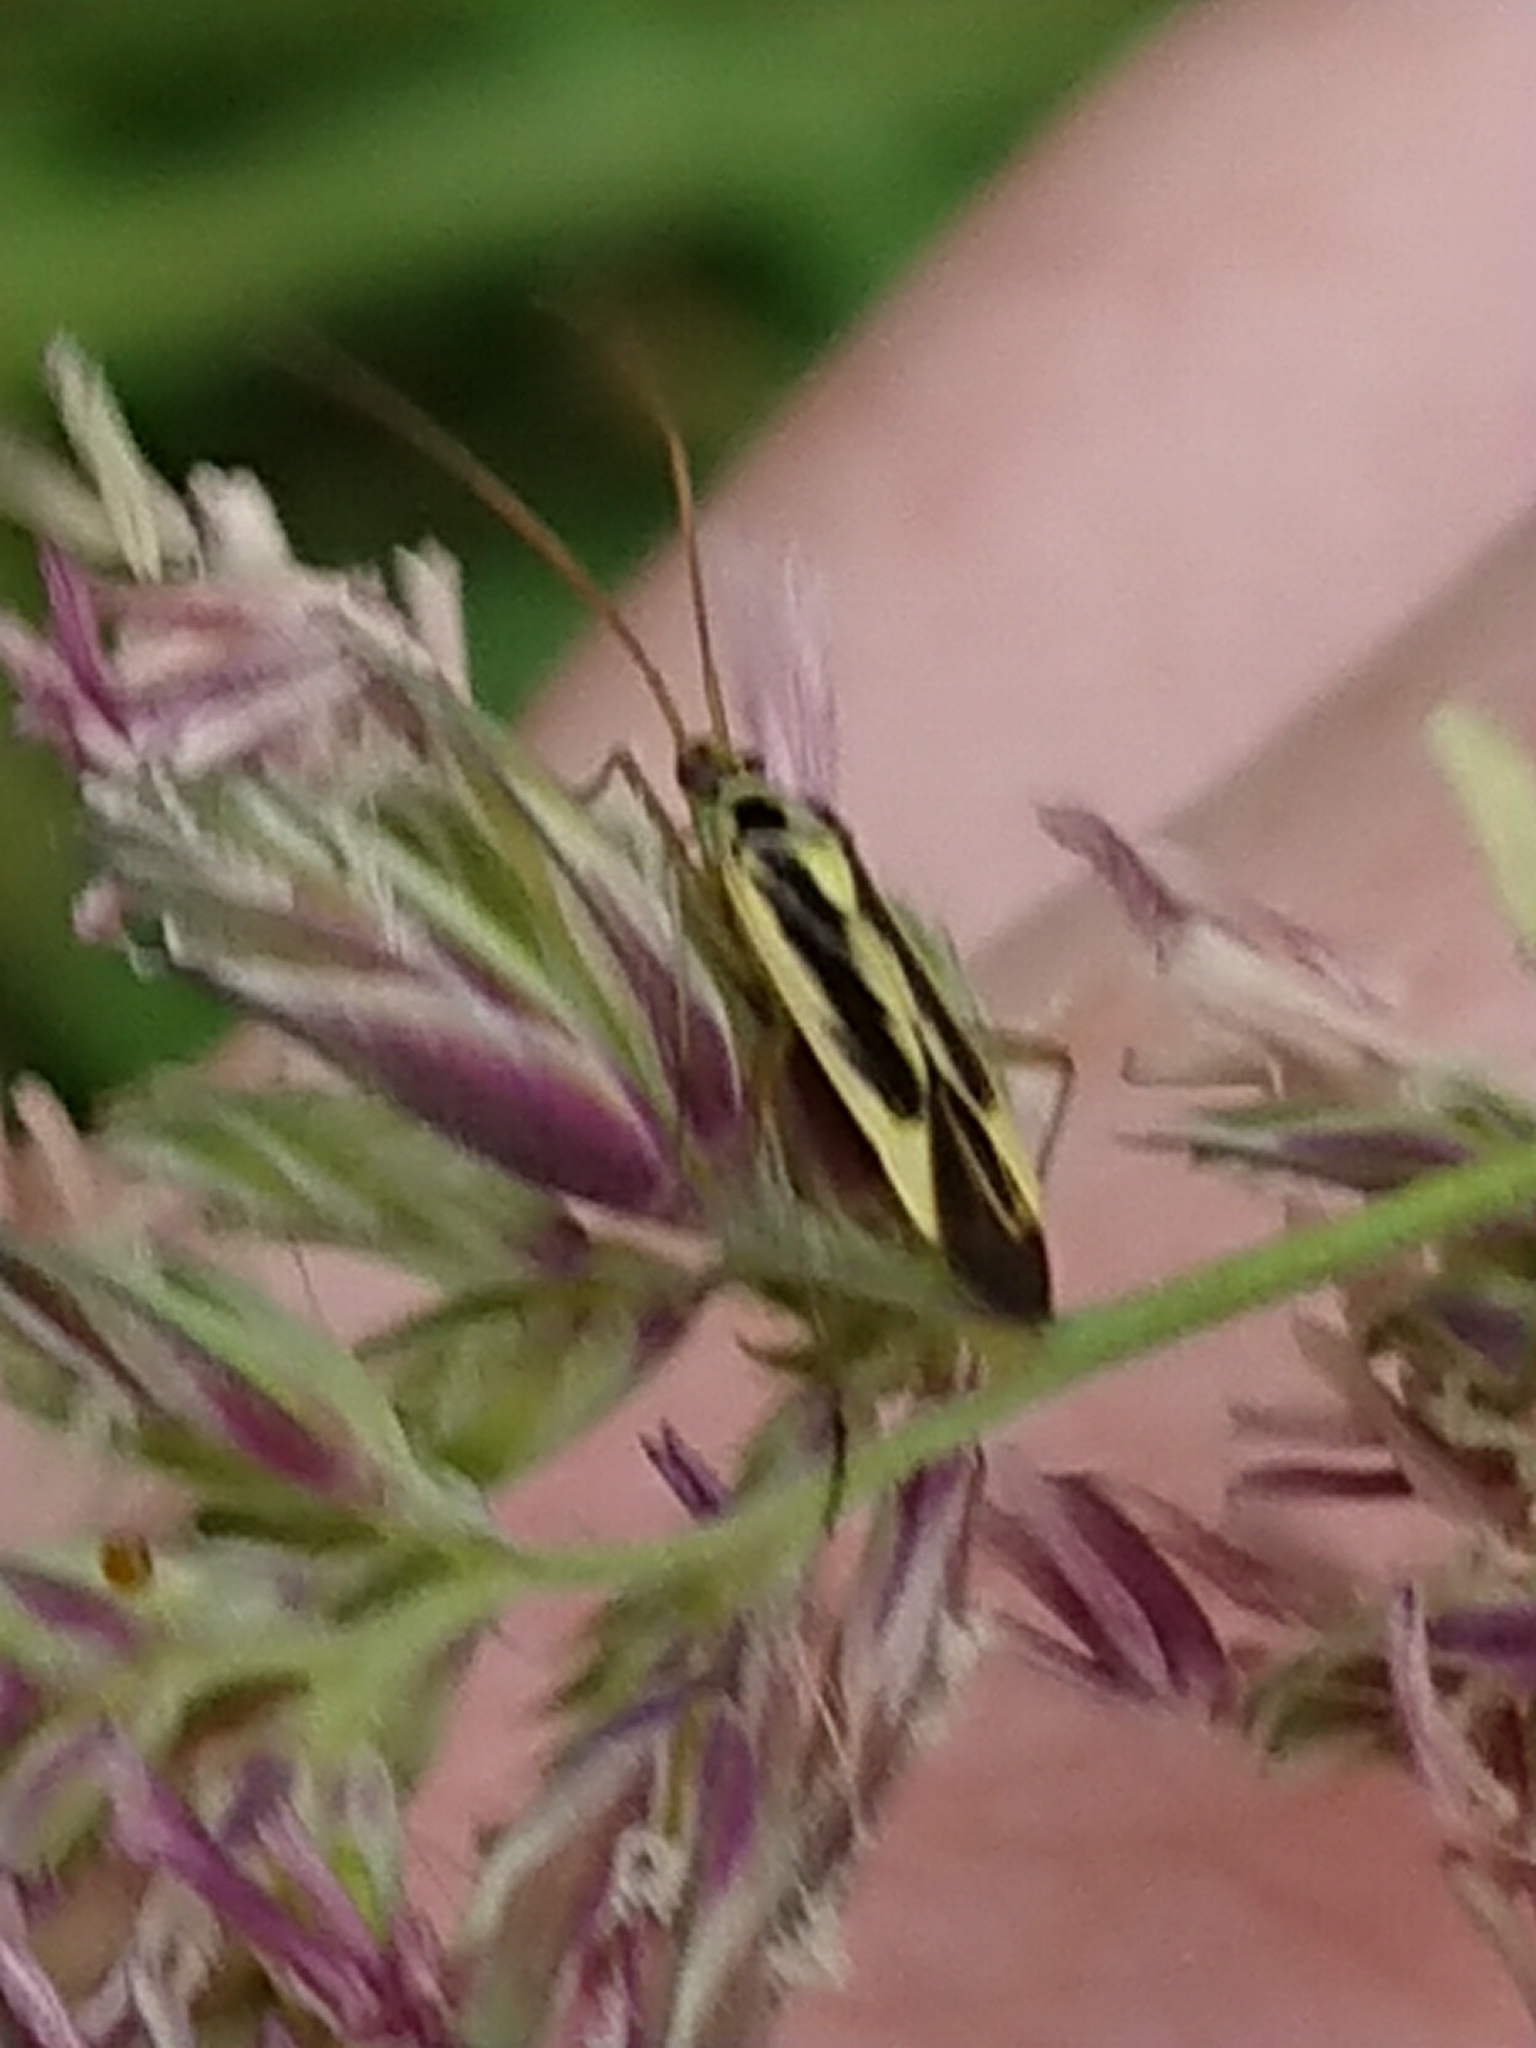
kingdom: Animalia
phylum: Arthropoda
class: Insecta
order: Hemiptera
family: Miridae
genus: Stenotus
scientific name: Stenotus binotatus
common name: Plant bug
